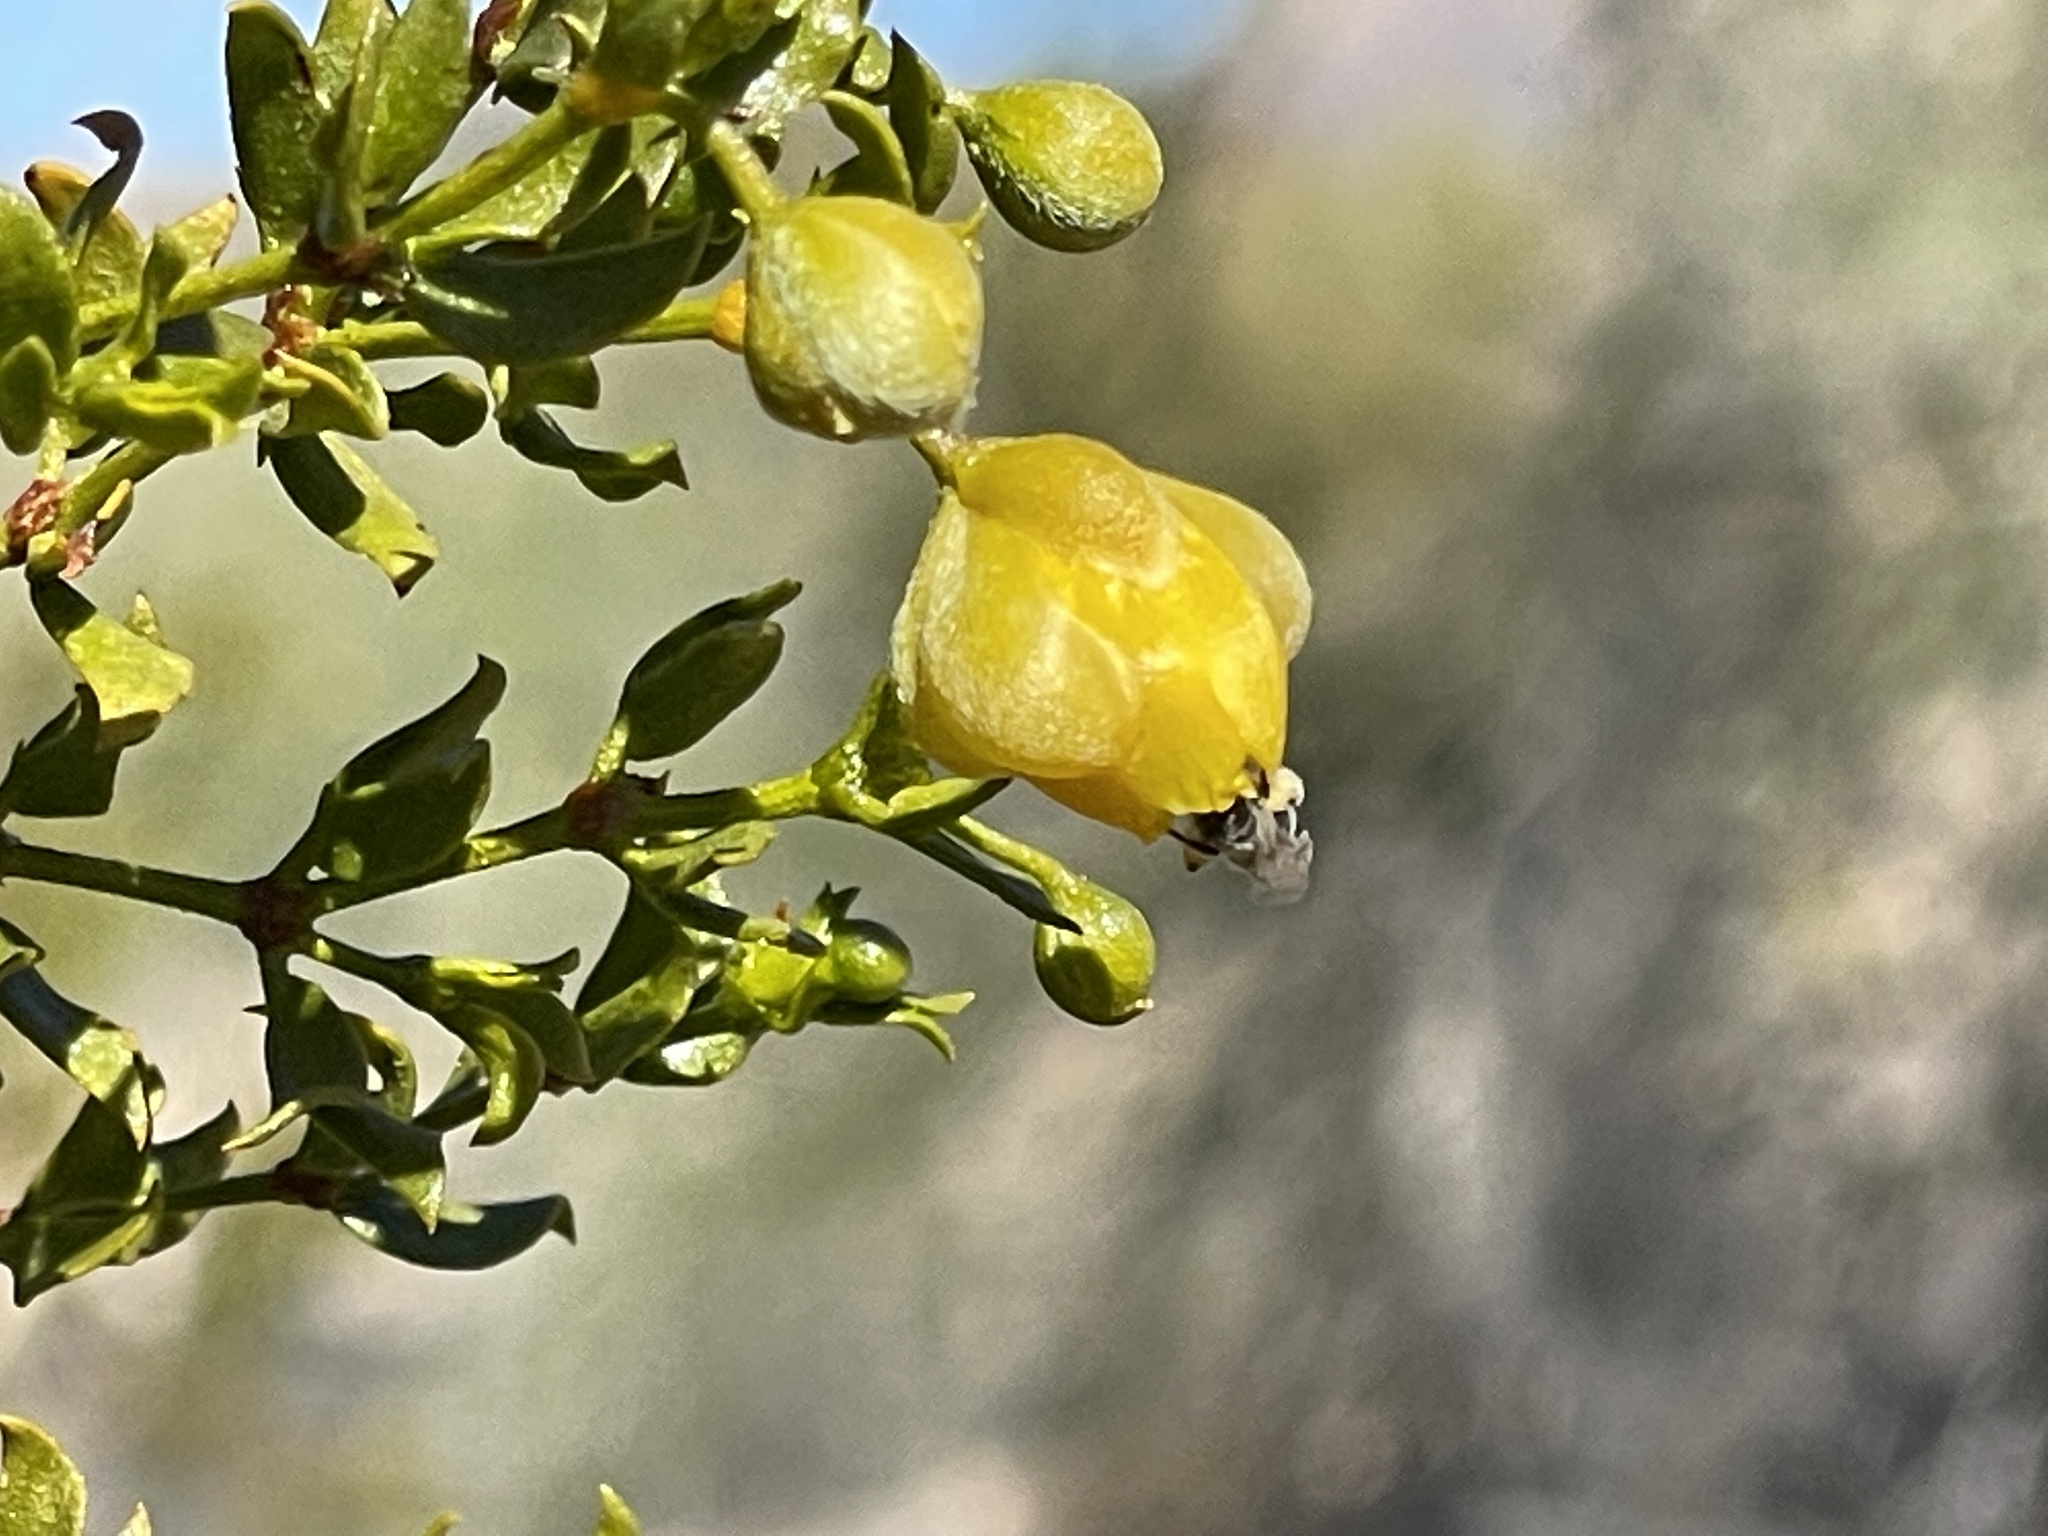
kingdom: Plantae
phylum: Tracheophyta
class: Magnoliopsida
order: Zygophyllales
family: Zygophyllaceae
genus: Larrea
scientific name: Larrea tridentata
